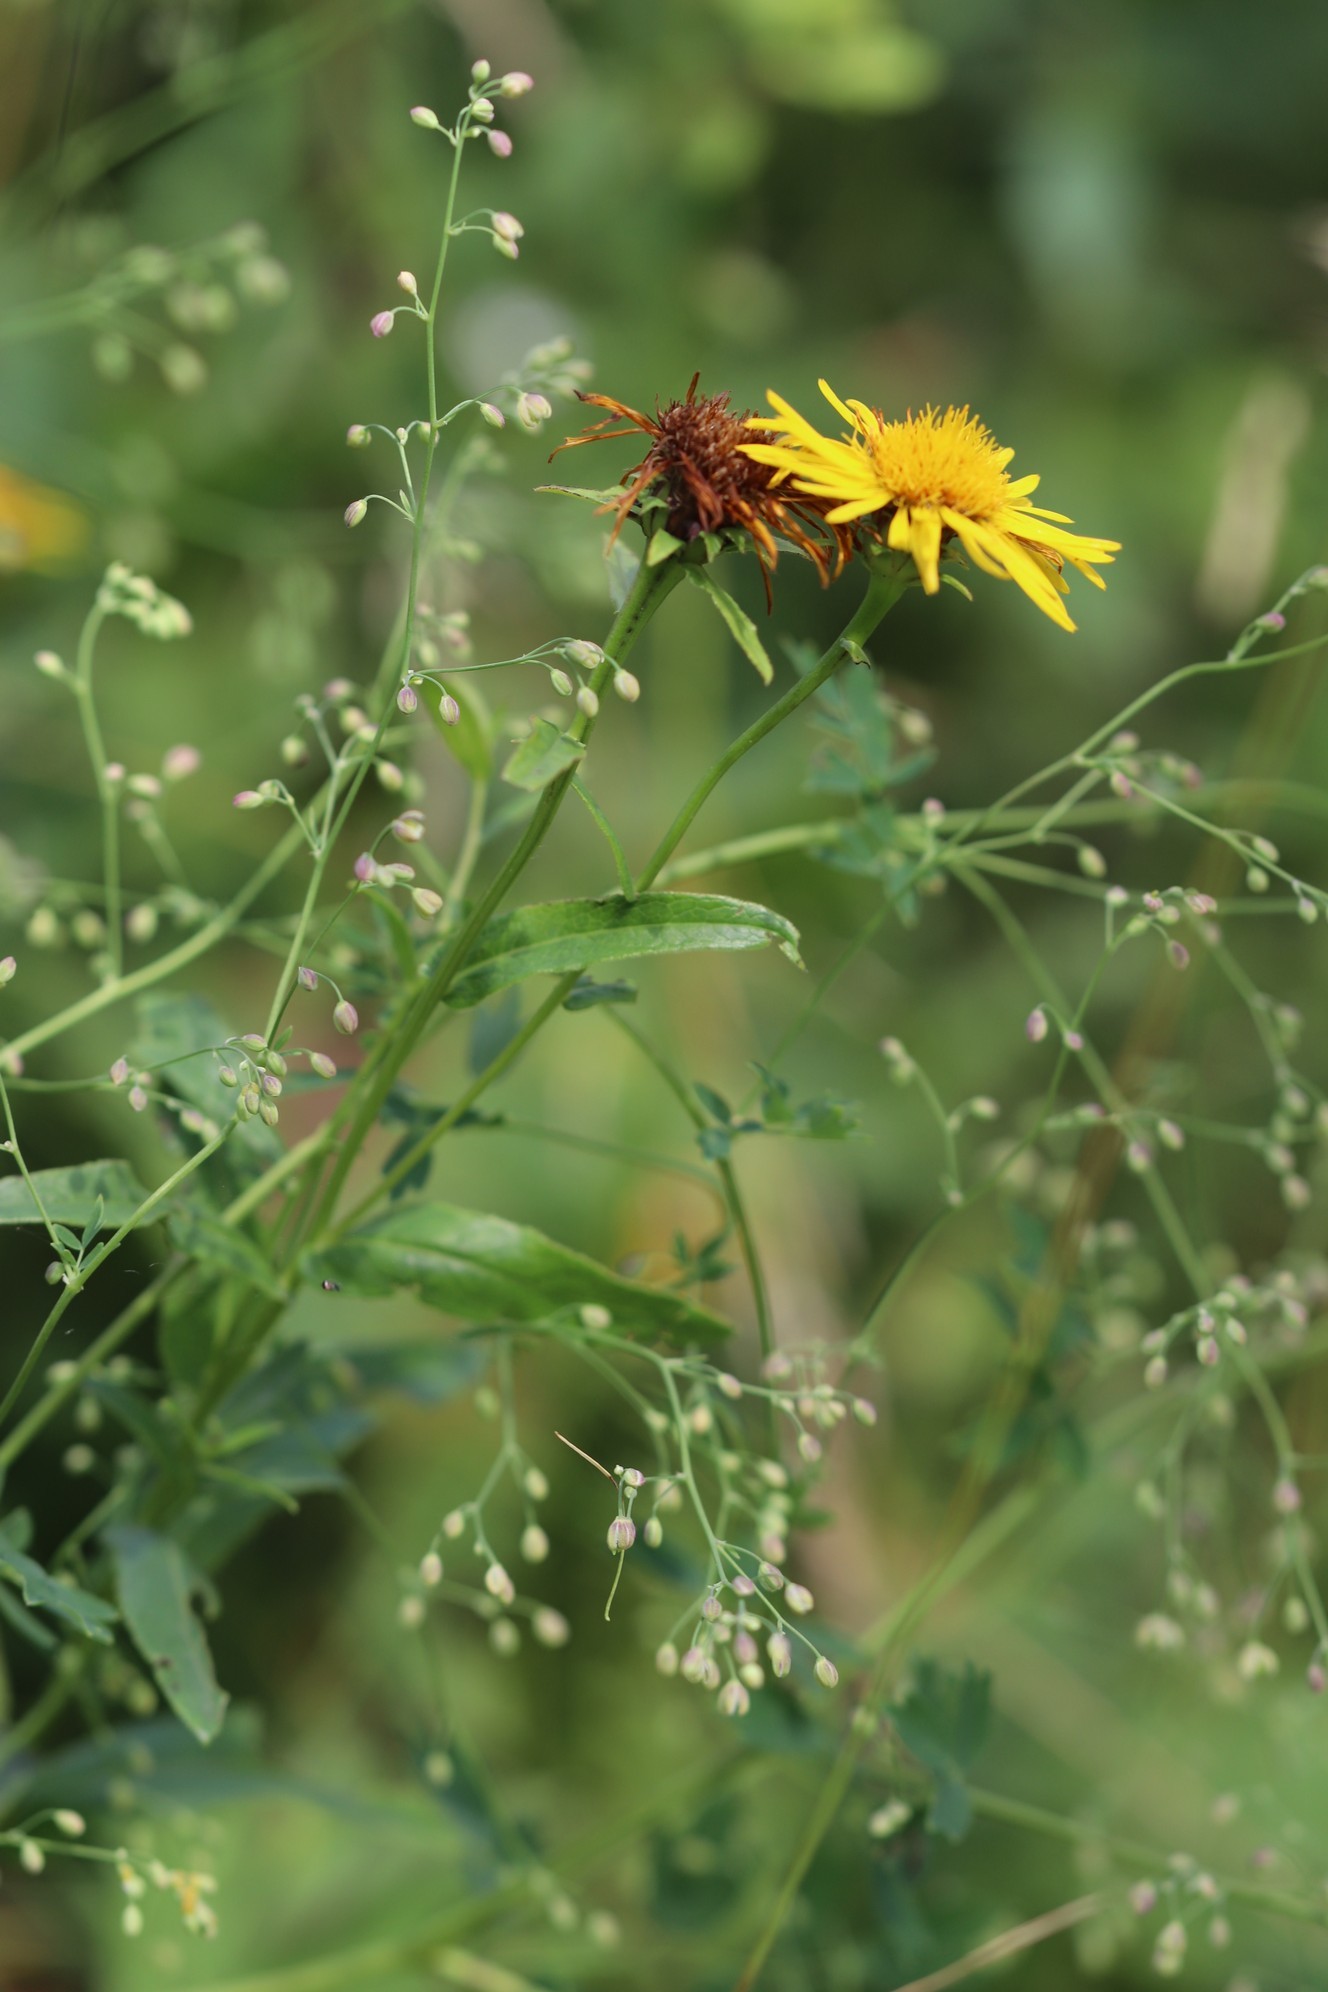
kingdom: Plantae
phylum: Tracheophyta
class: Magnoliopsida
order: Asterales
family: Asteraceae
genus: Pentanema
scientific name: Pentanema salicinum
